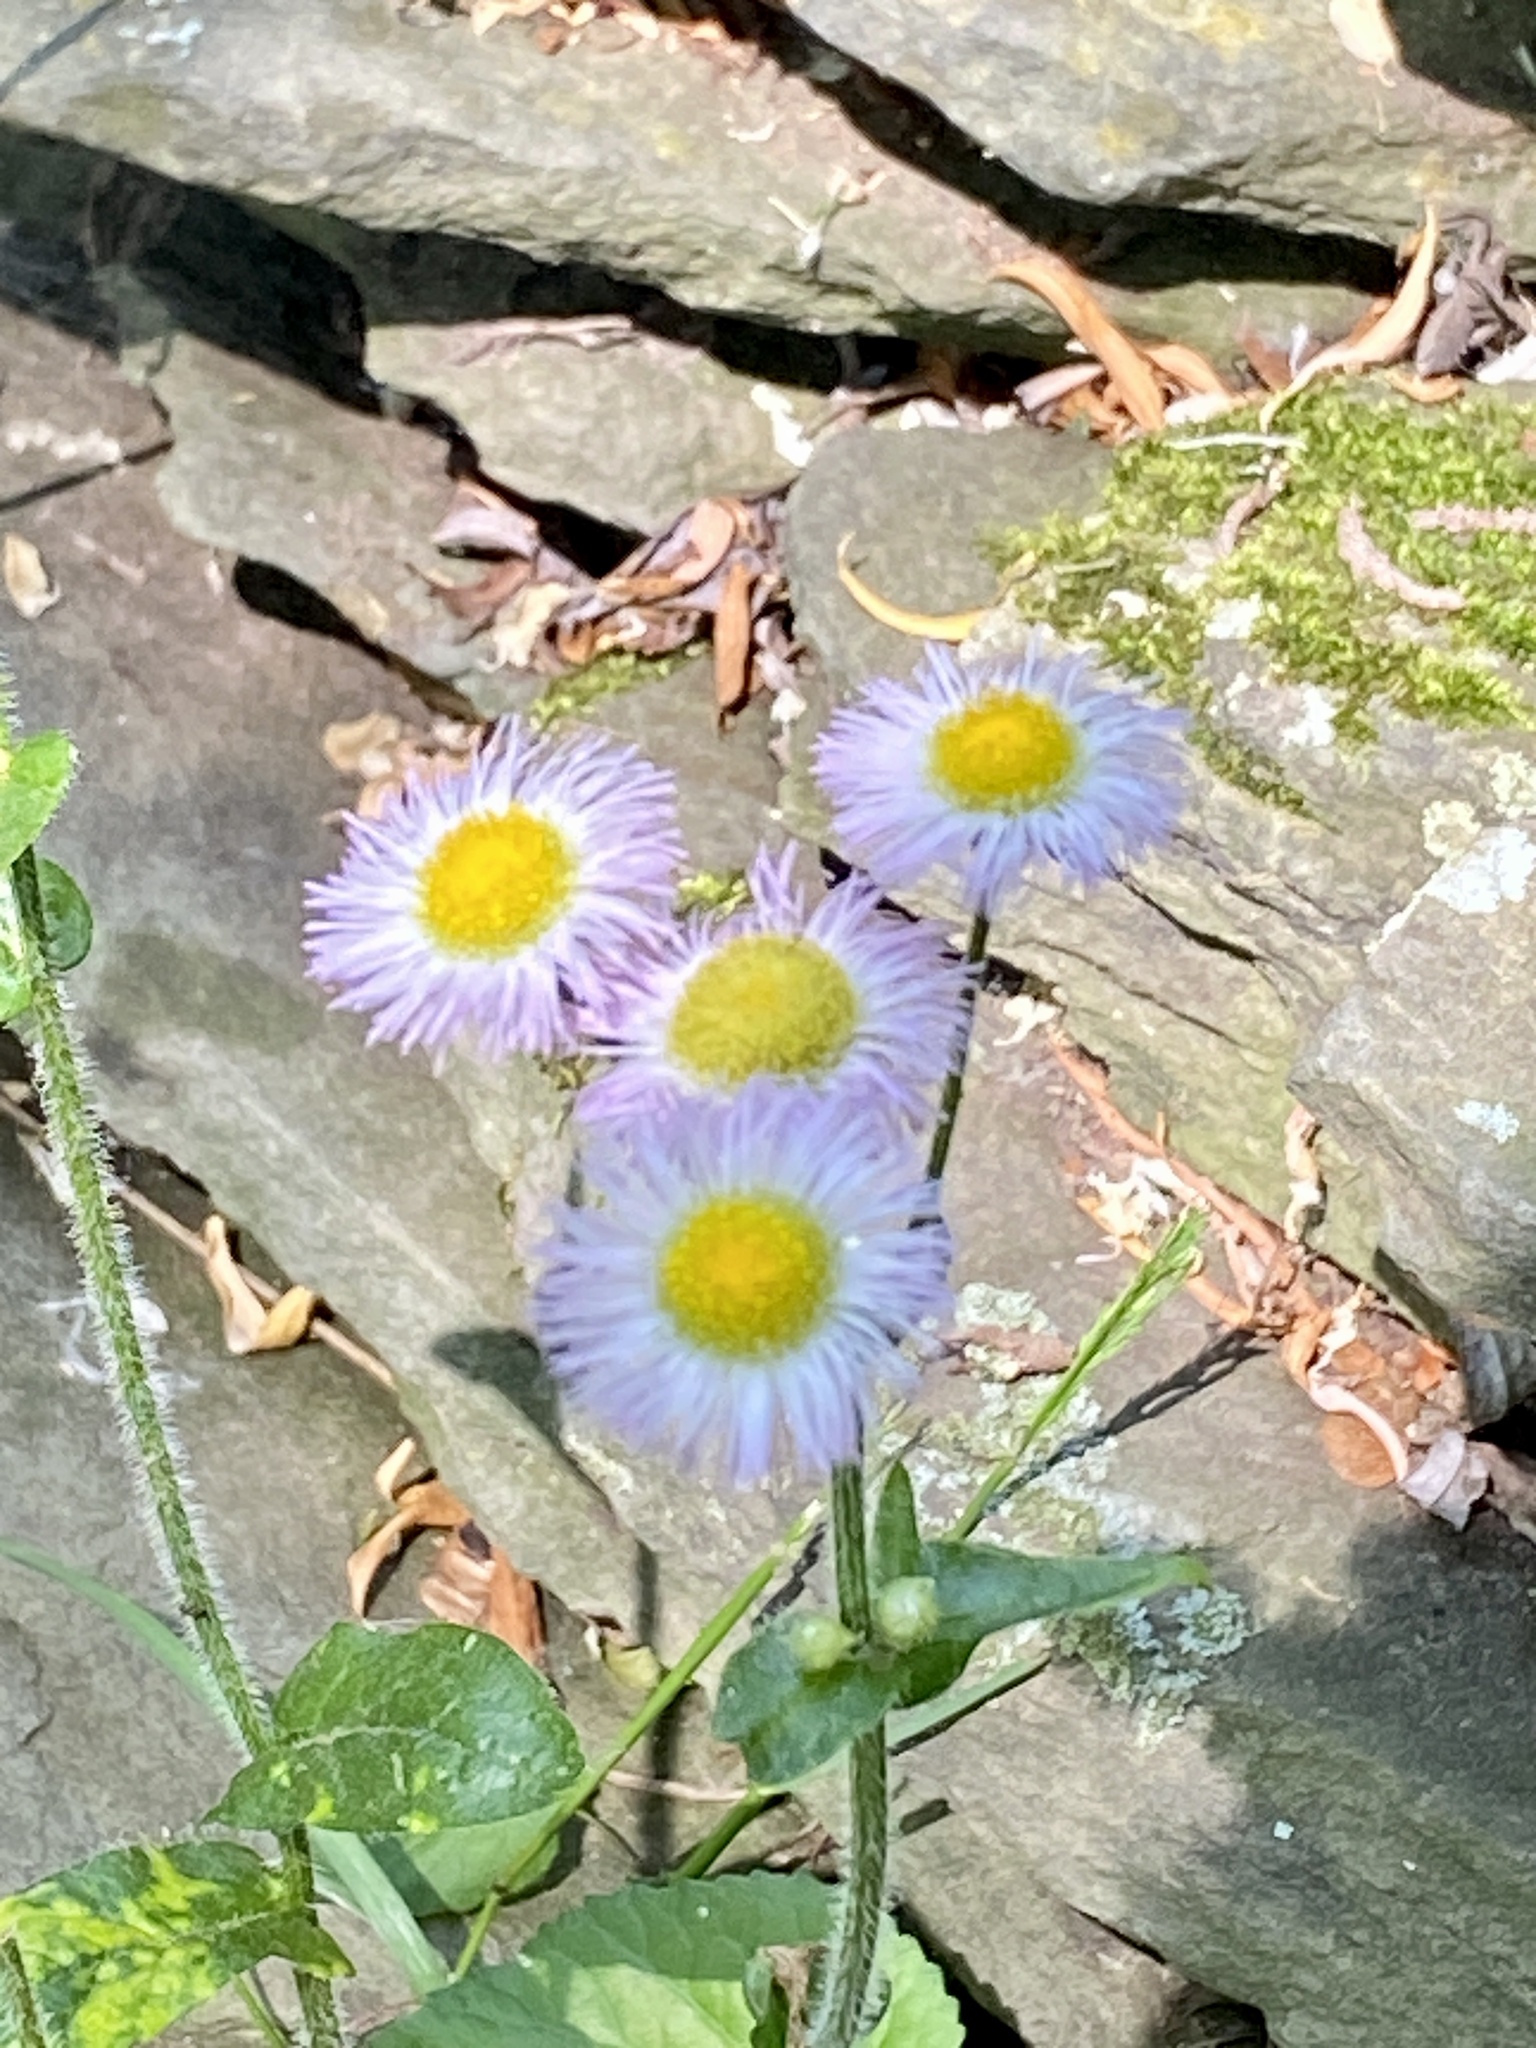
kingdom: Plantae
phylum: Tracheophyta
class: Magnoliopsida
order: Asterales
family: Asteraceae
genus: Erigeron
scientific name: Erigeron philadelphicus
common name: Robin's-plantain
